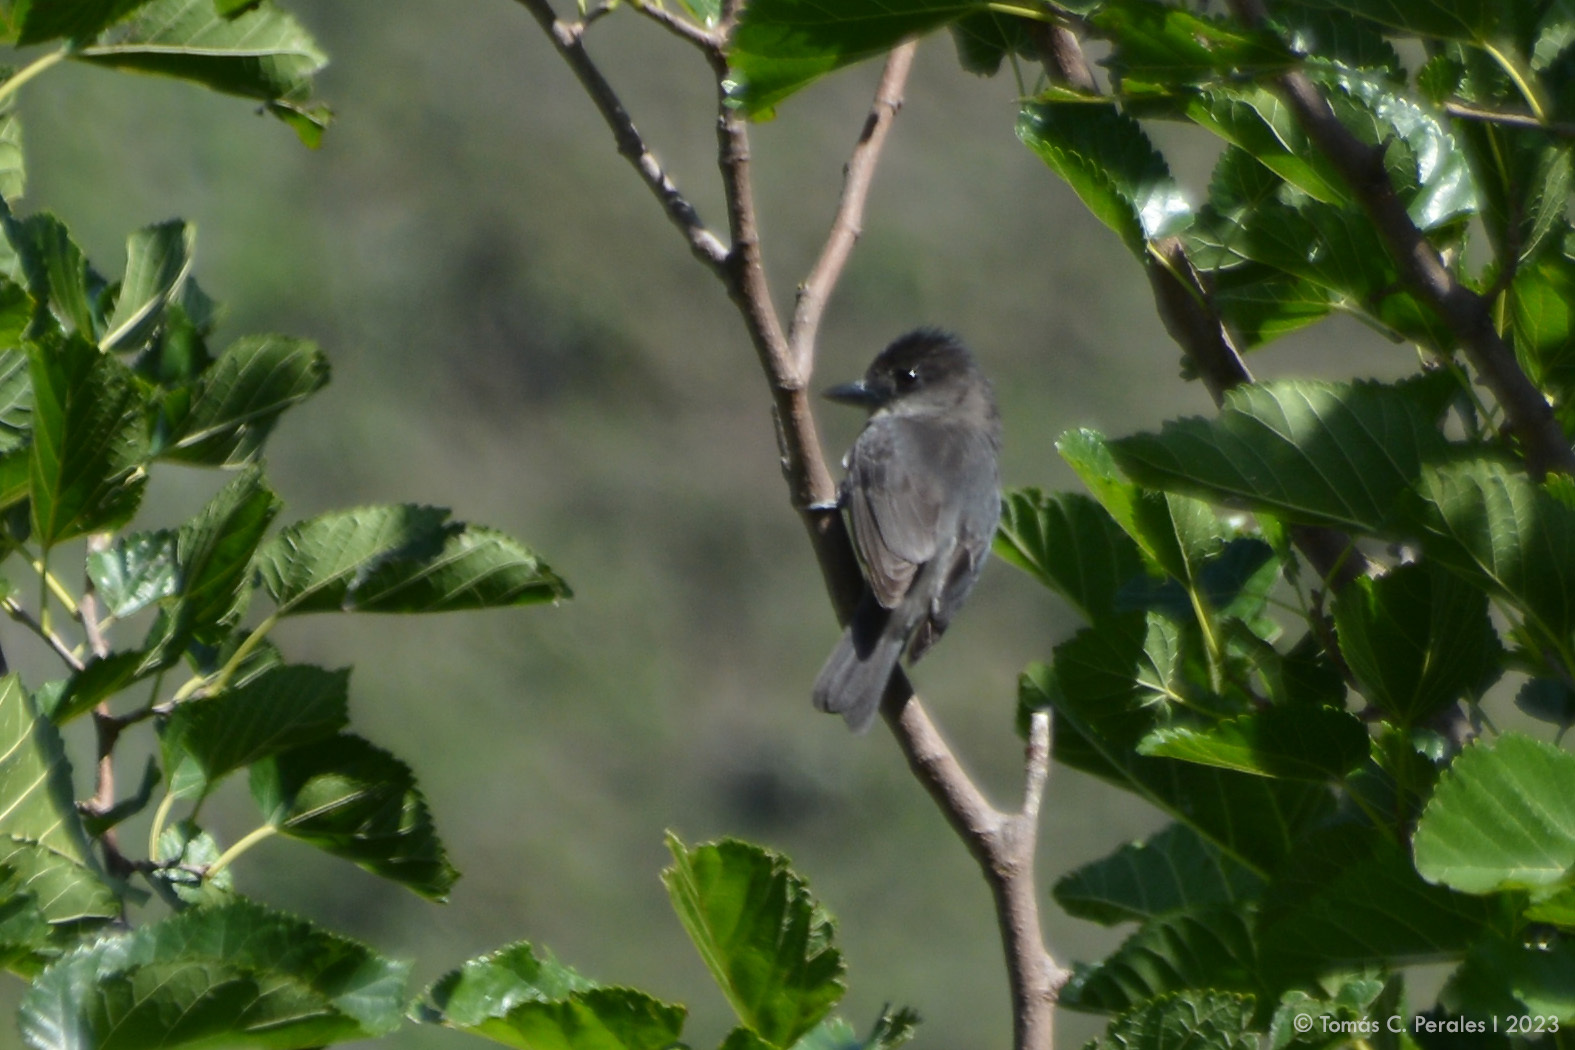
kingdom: Animalia
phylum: Chordata
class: Aves
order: Passeriformes
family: Cotingidae
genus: Pachyramphus
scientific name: Pachyramphus validus
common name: Crested becard
